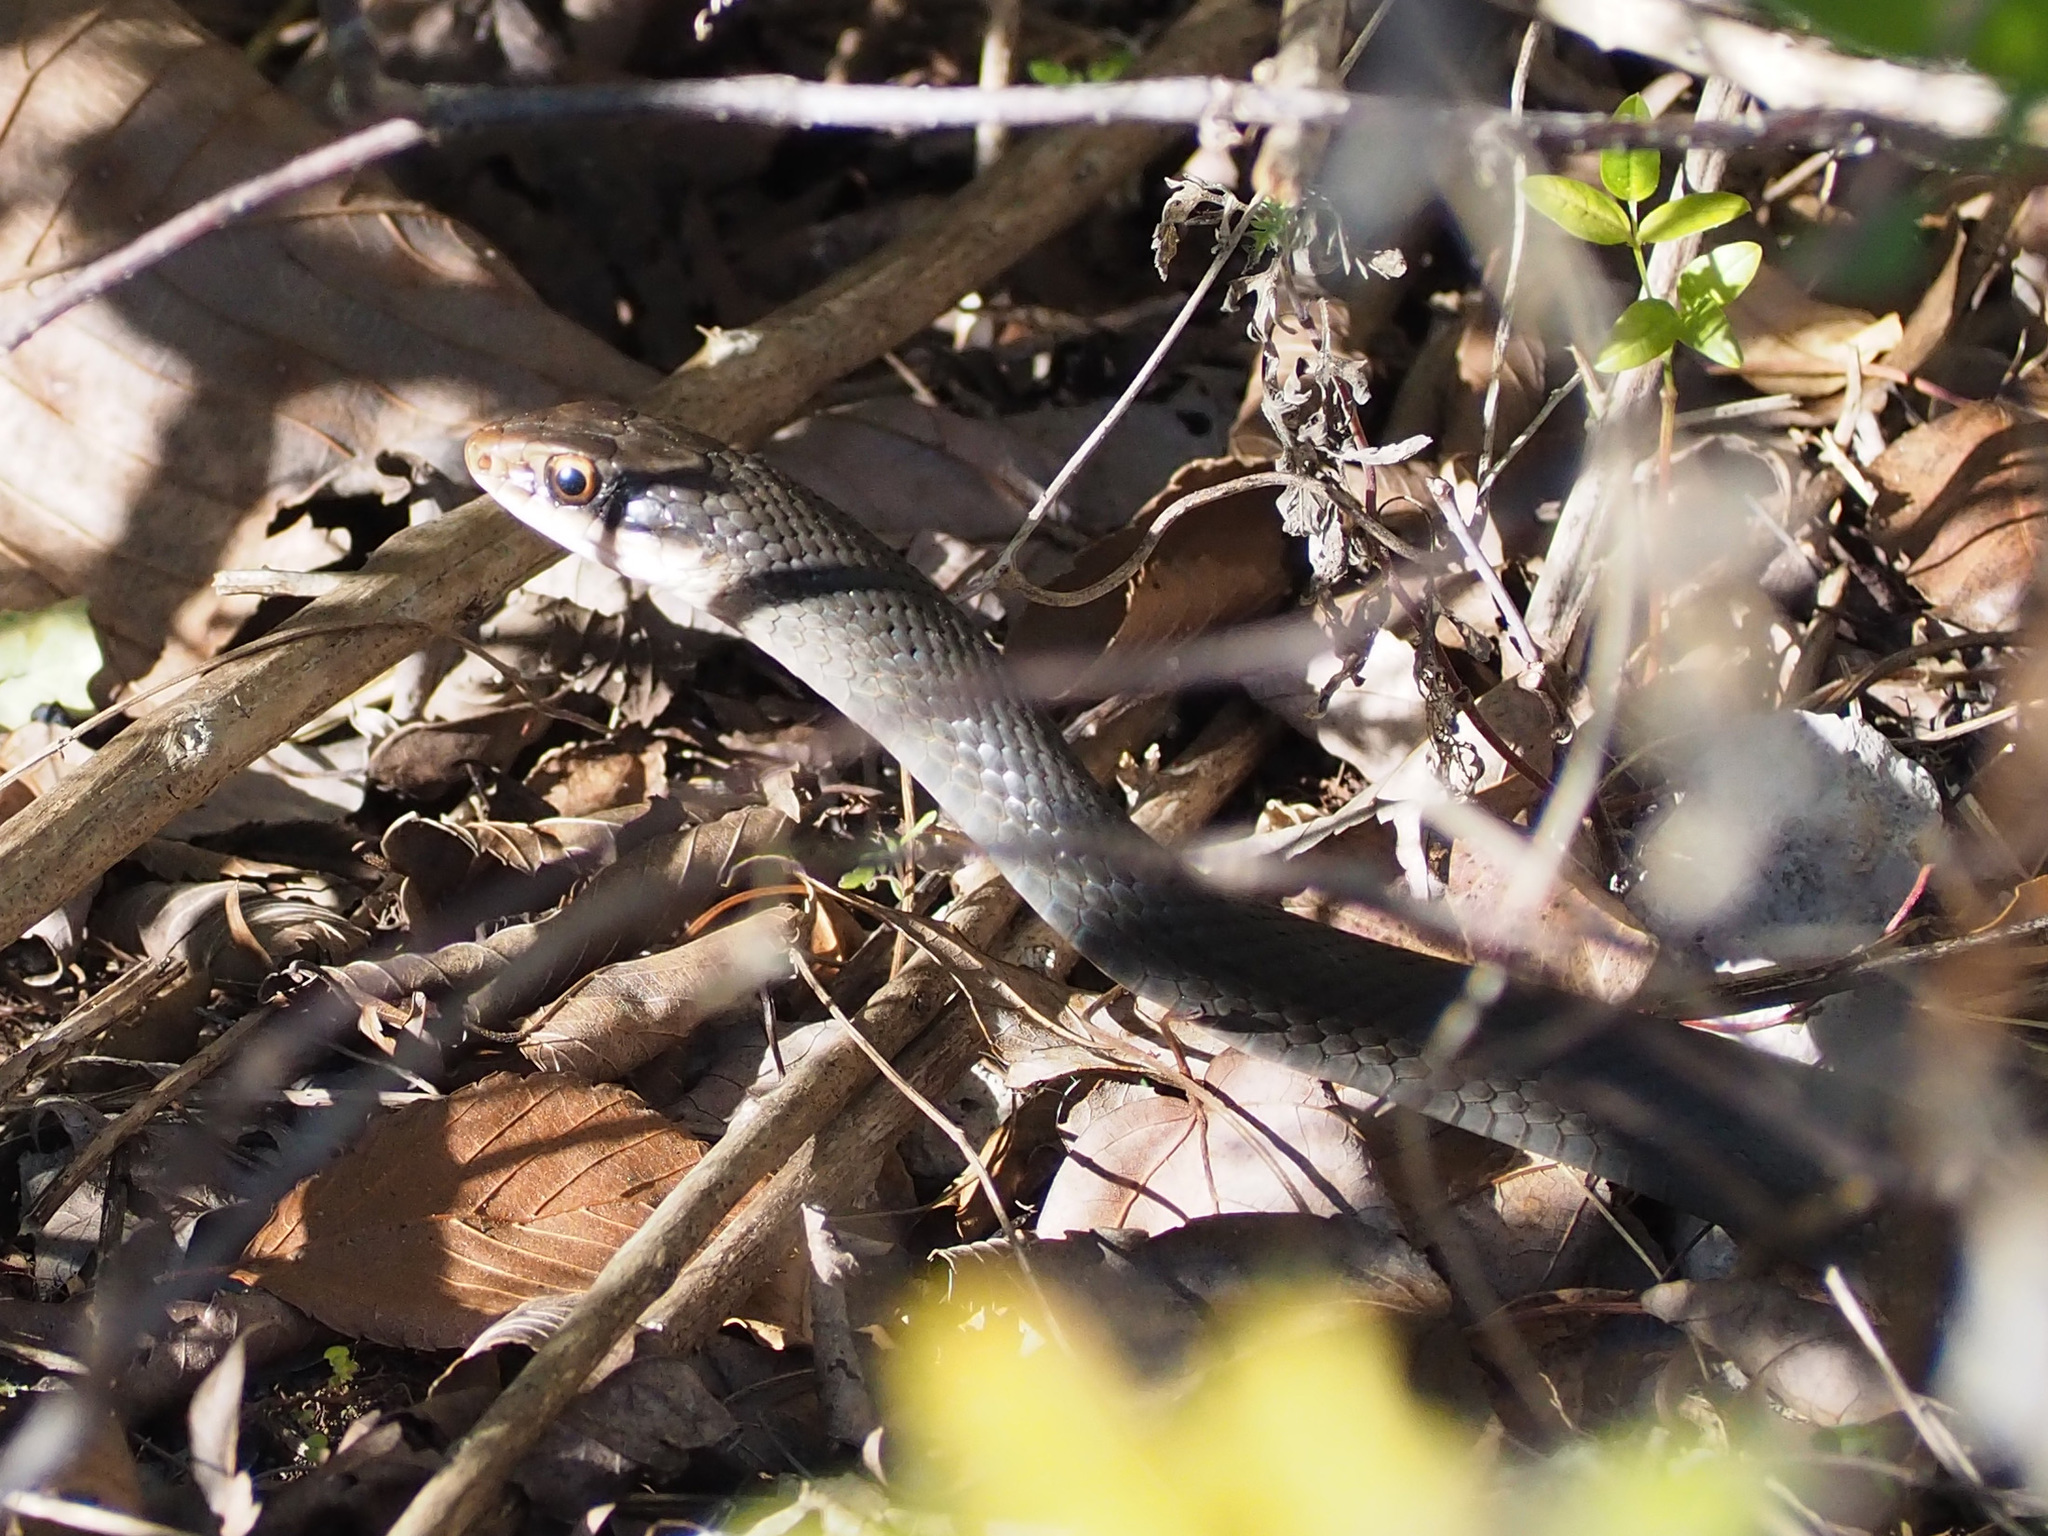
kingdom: Animalia
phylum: Chordata
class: Squamata
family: Colubridae
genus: Coluber
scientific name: Coluber constrictor
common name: Eastern racer
